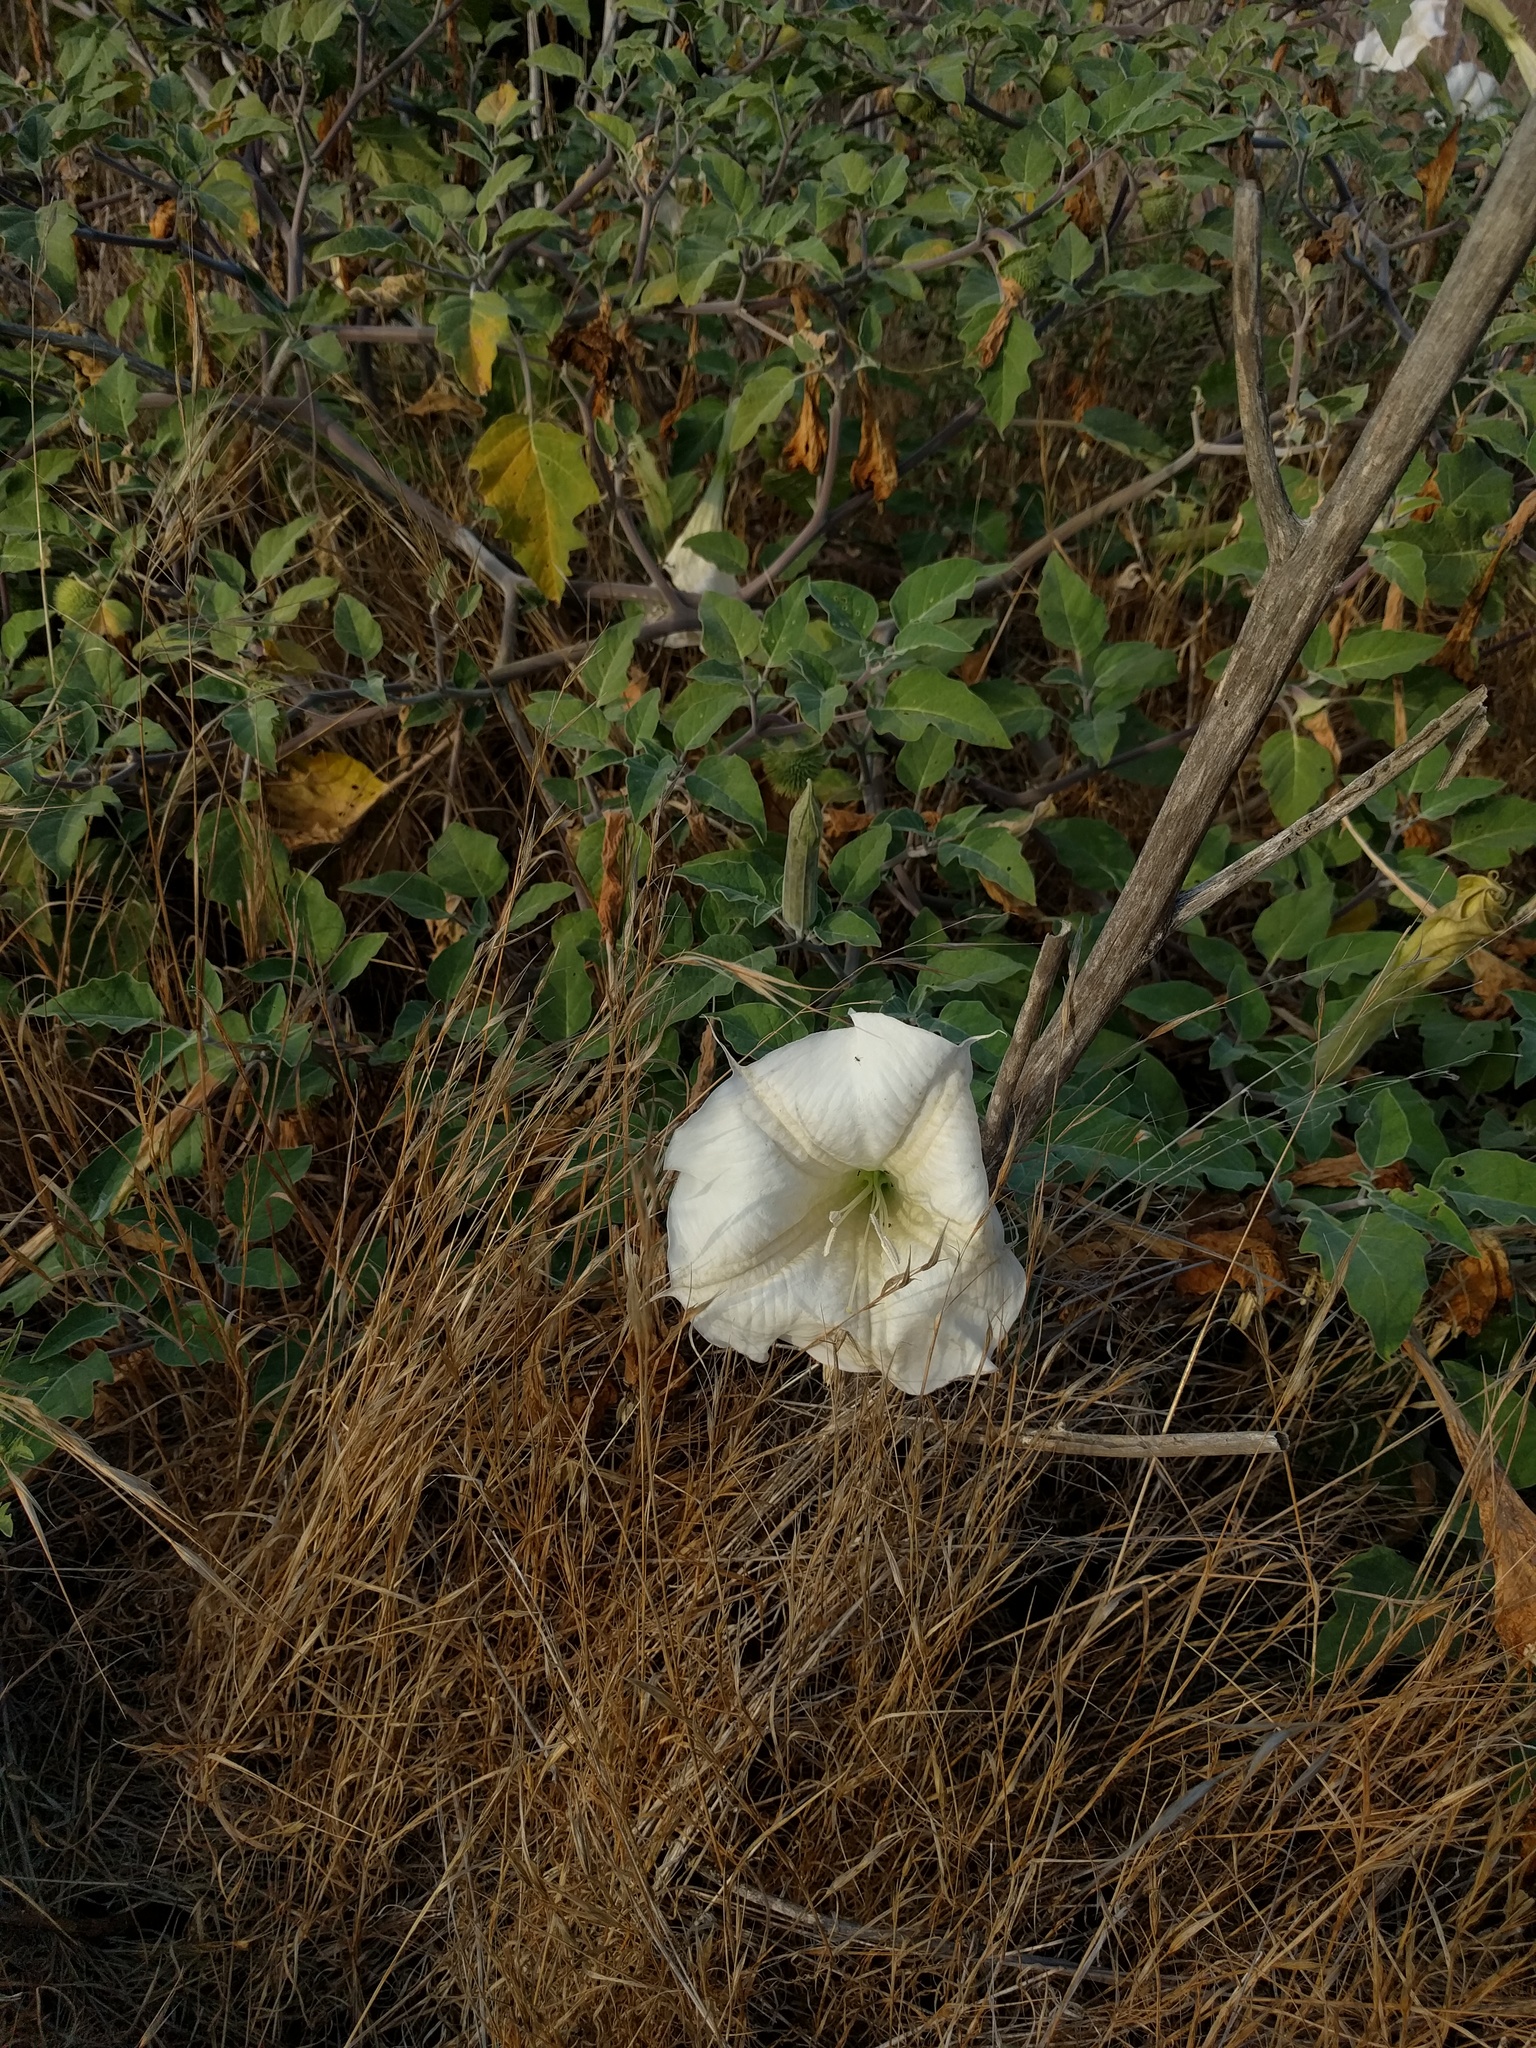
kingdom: Plantae
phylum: Tracheophyta
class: Magnoliopsida
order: Solanales
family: Solanaceae
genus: Datura
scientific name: Datura wrightii
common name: Sacred thorn-apple
